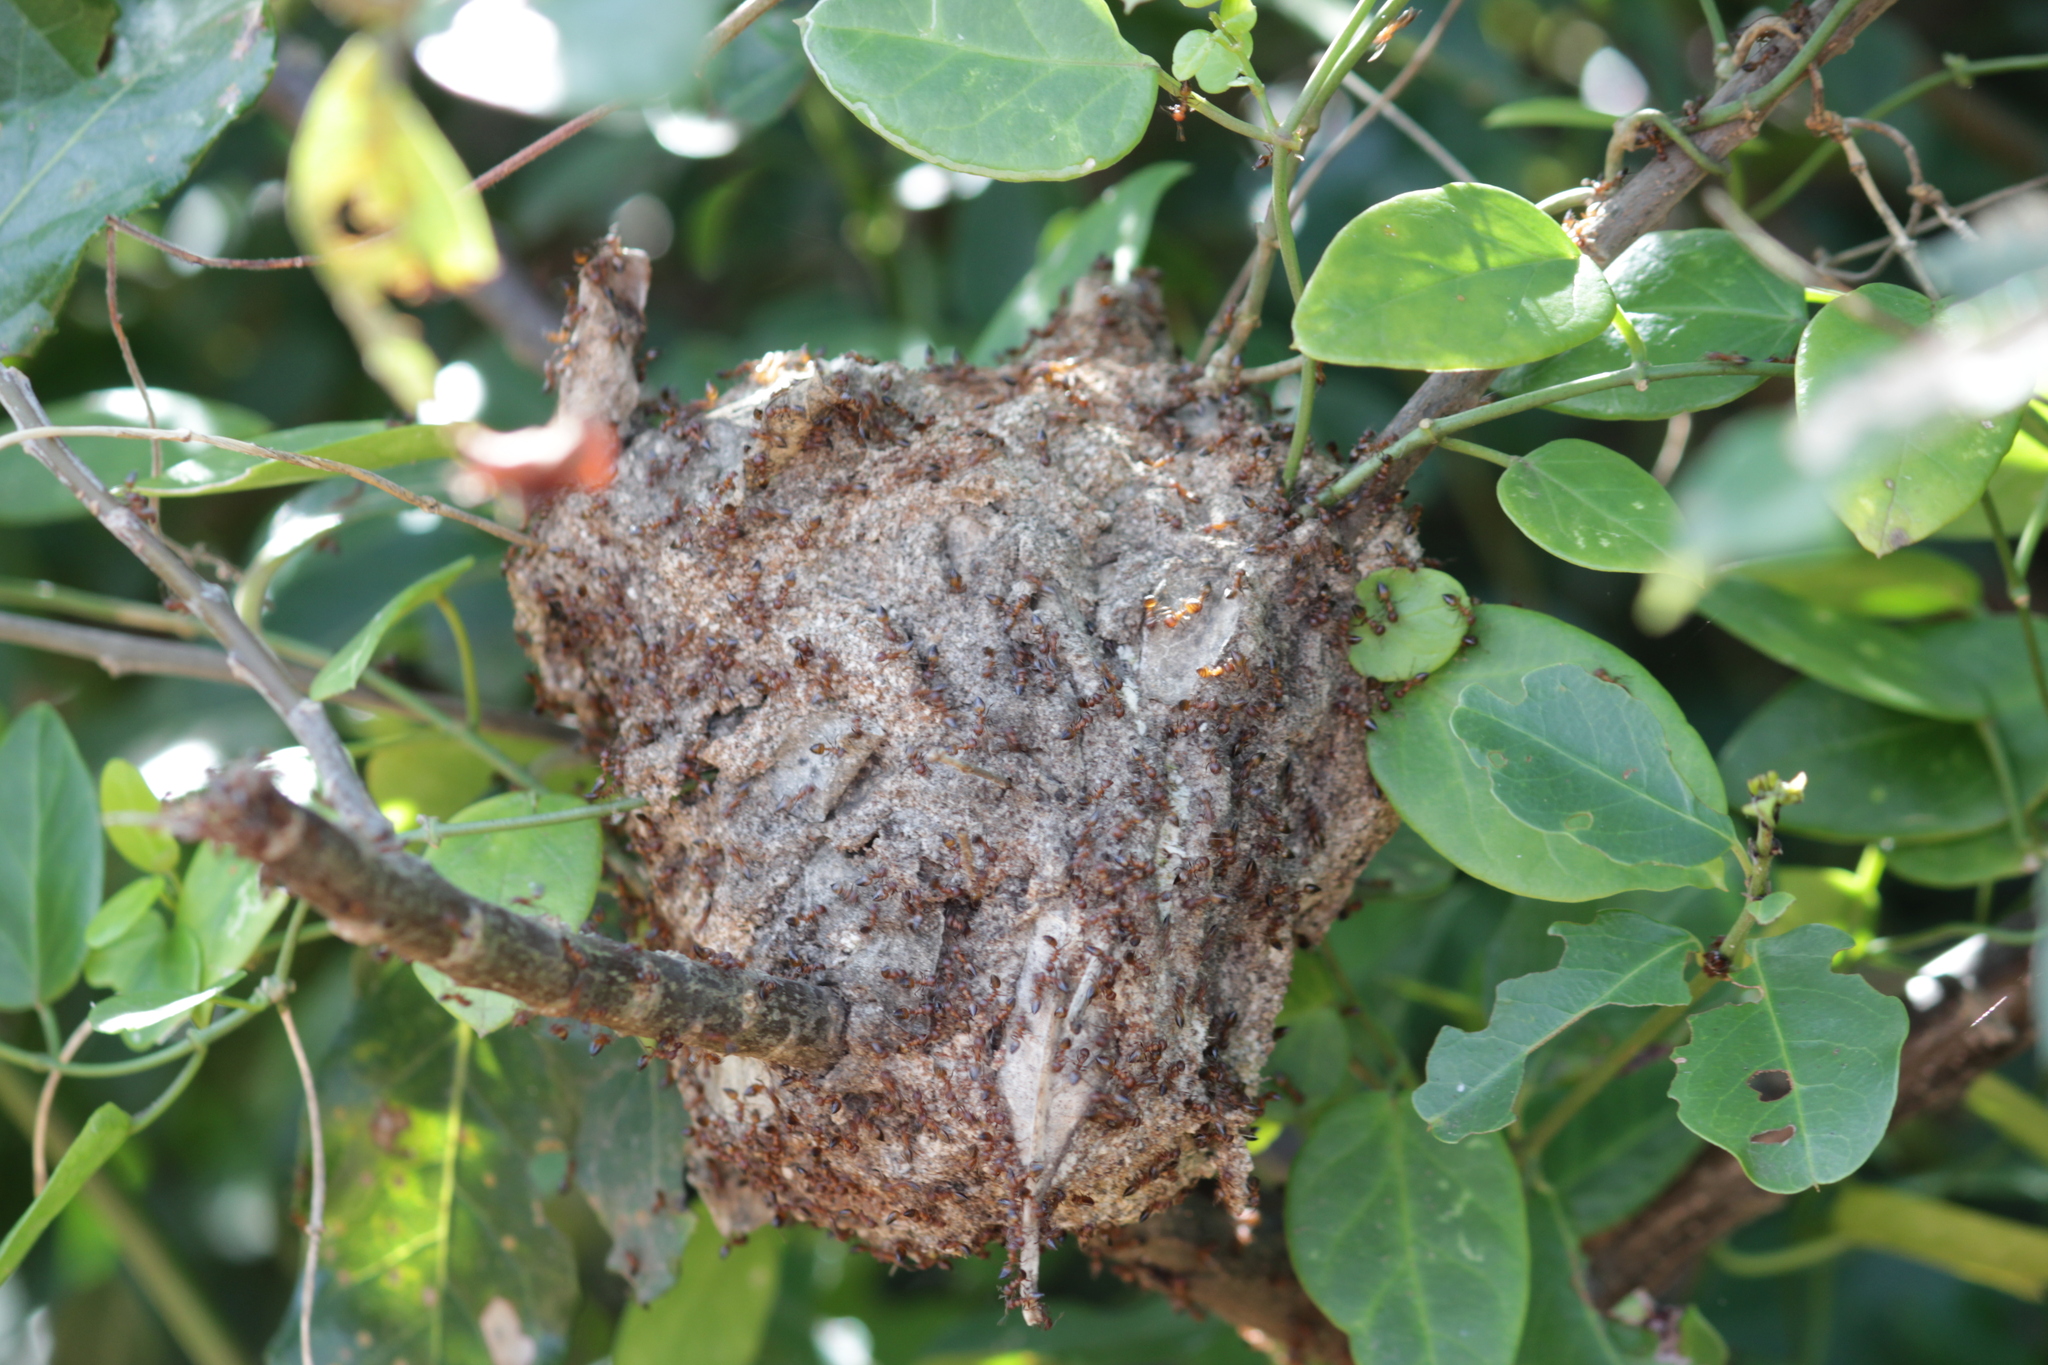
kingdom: Animalia
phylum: Arthropoda
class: Insecta
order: Hymenoptera
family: Formicidae
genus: Crematogaster
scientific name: Crematogaster castanea
